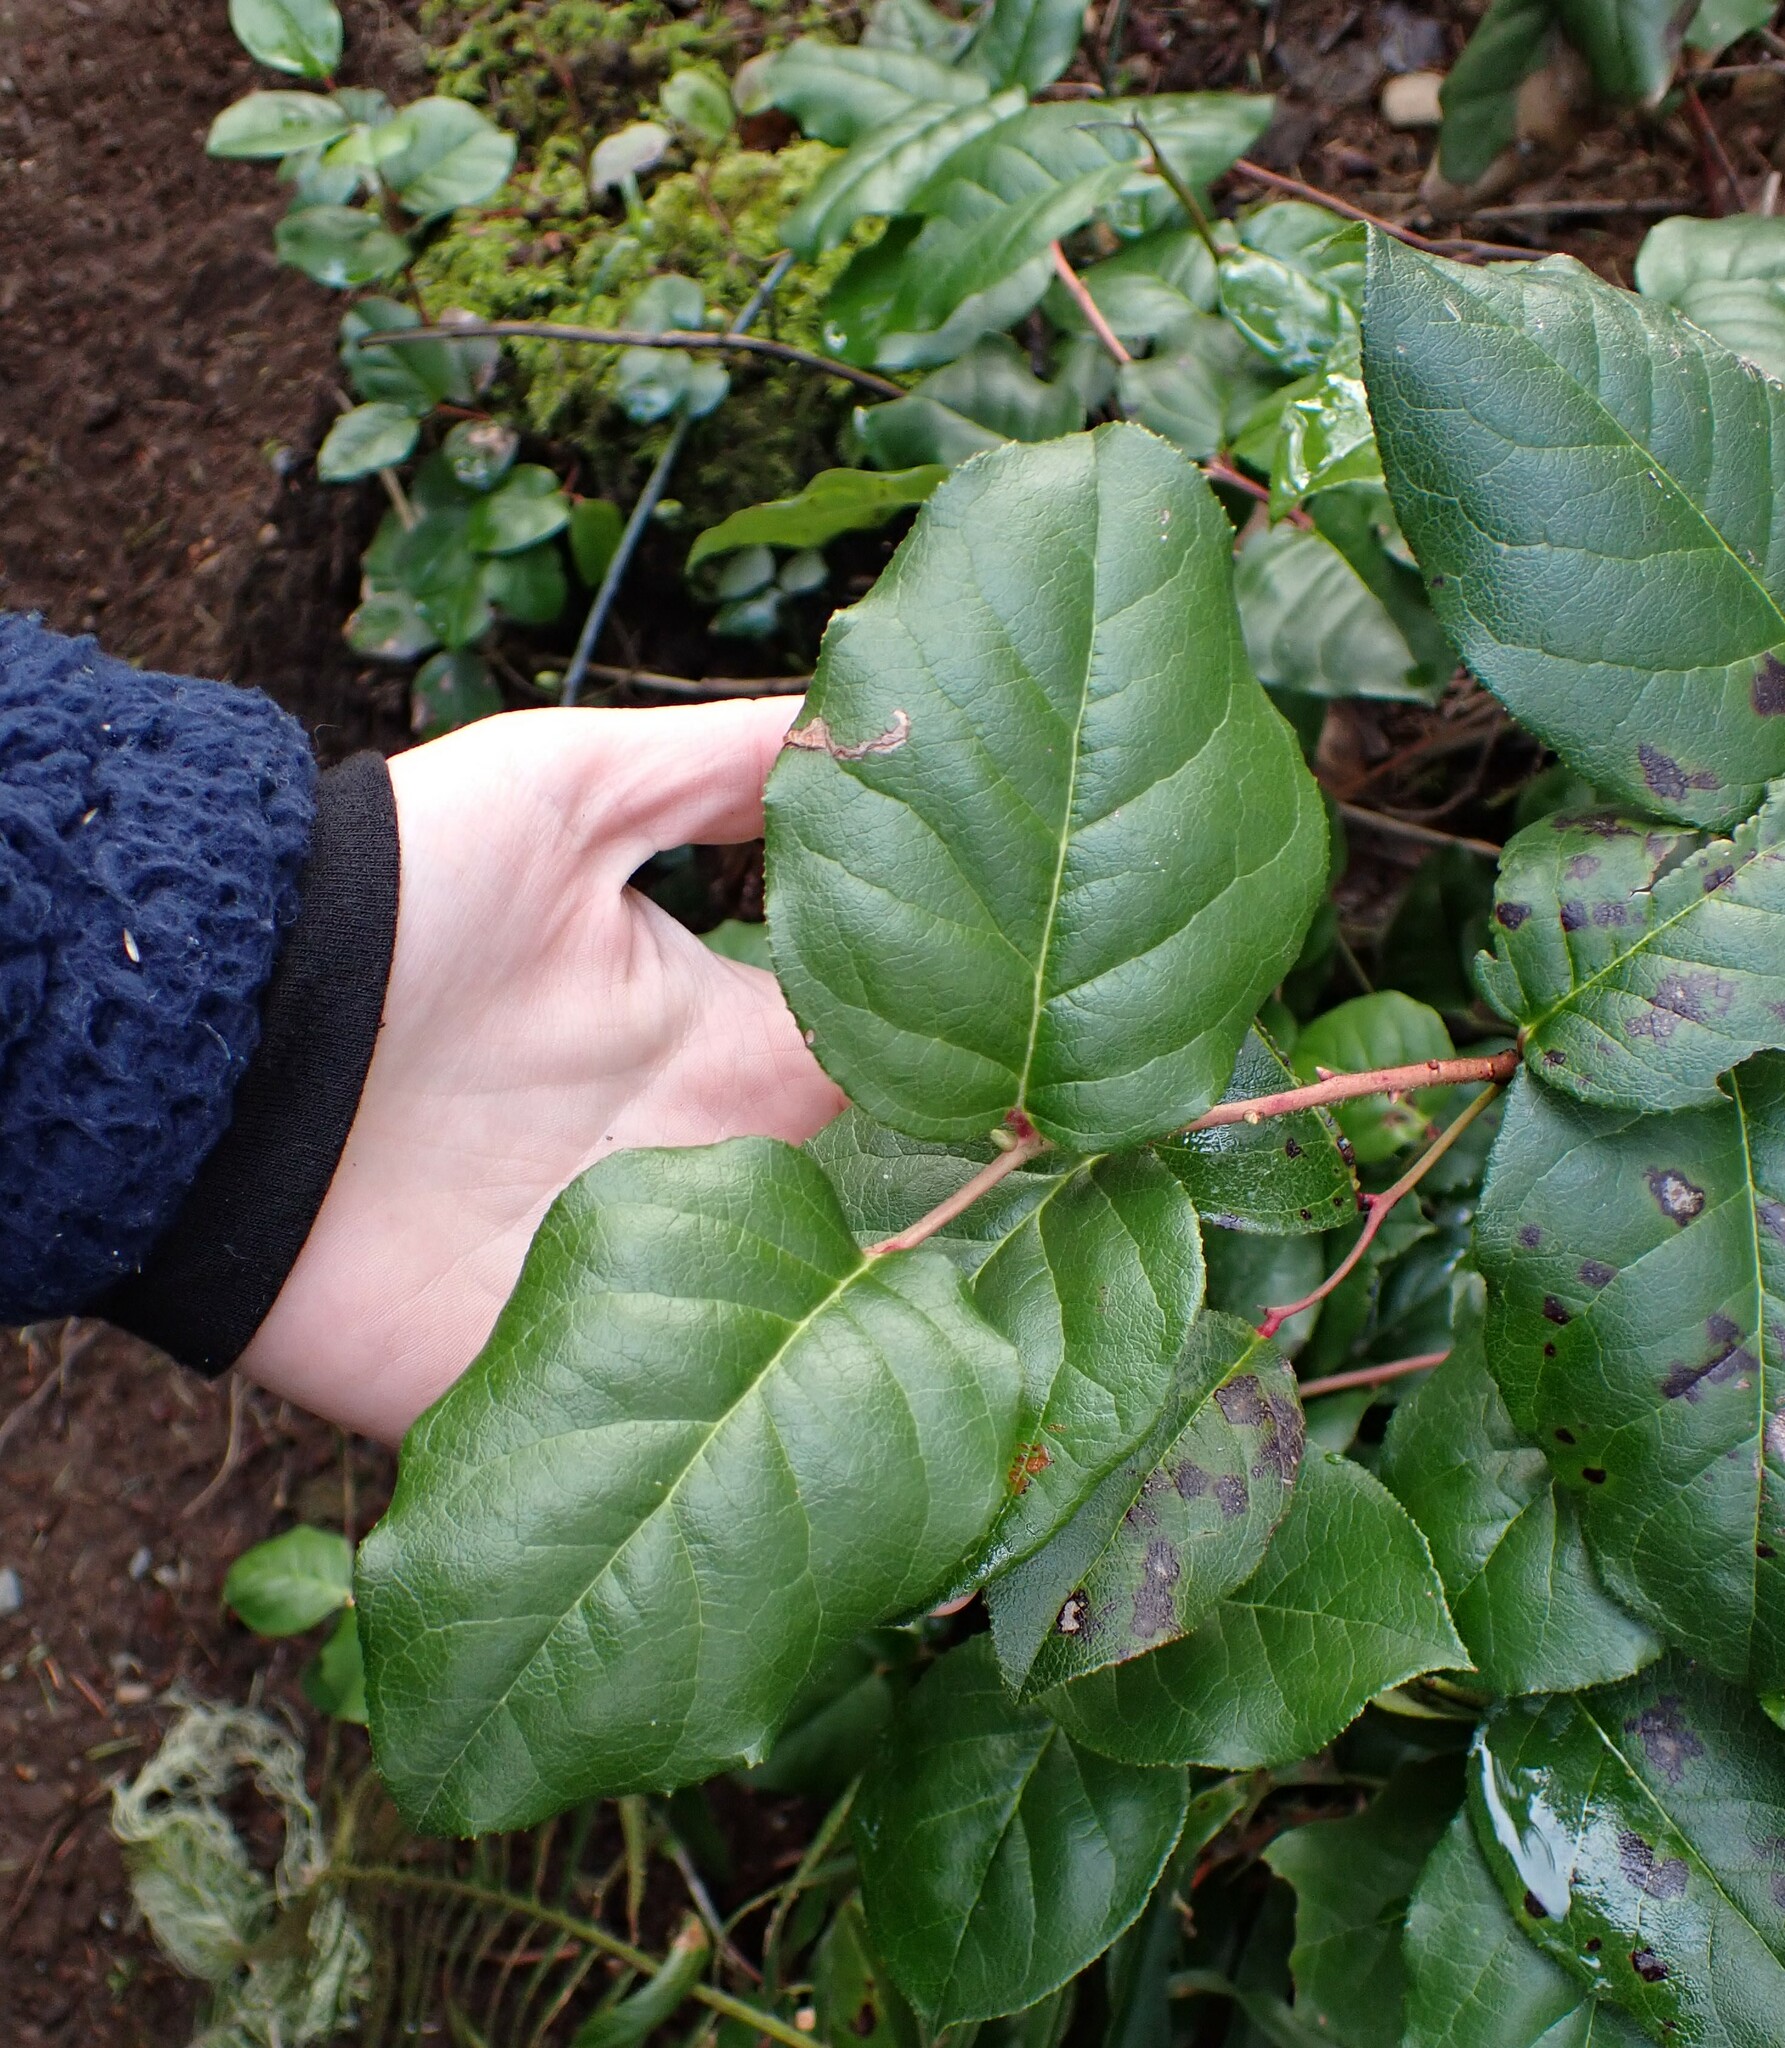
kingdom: Plantae
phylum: Tracheophyta
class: Magnoliopsida
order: Ericales
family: Ericaceae
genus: Gaultheria
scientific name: Gaultheria shallon
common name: Shallon
